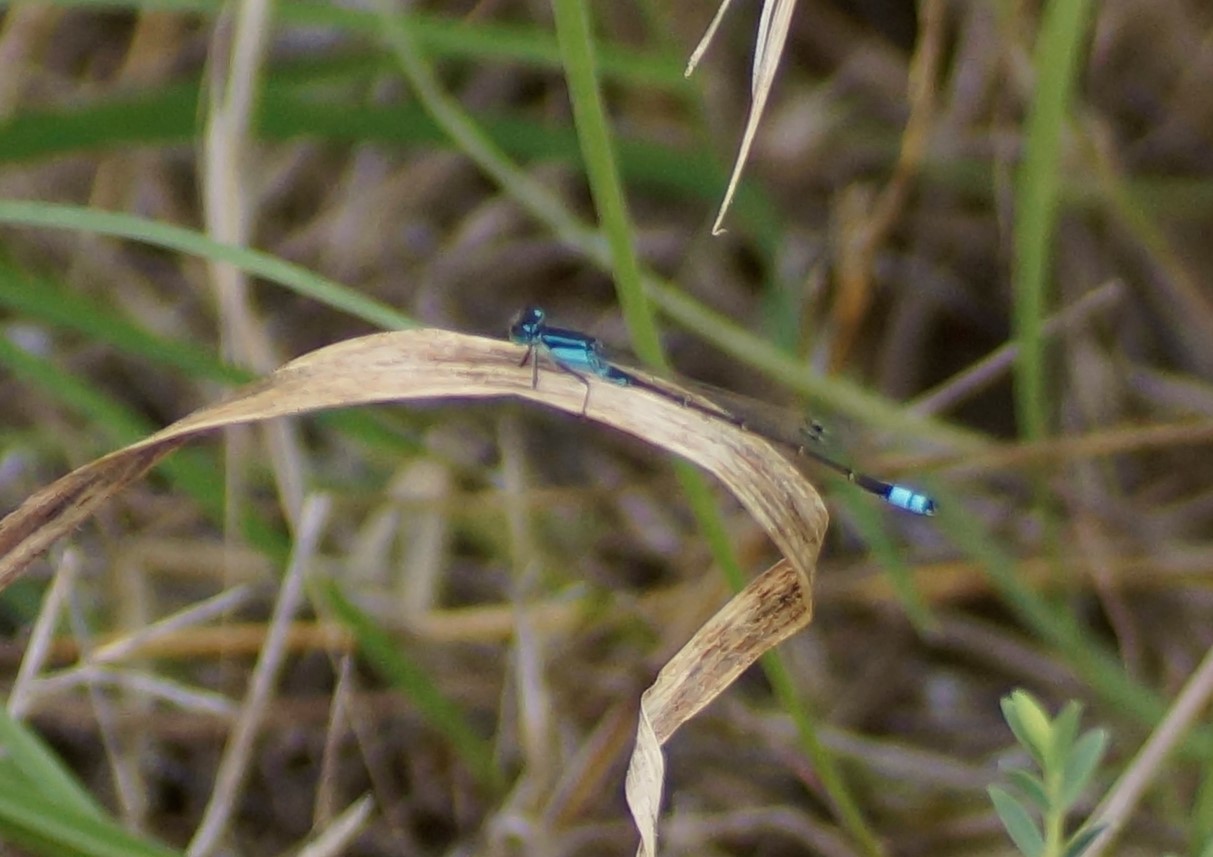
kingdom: Animalia
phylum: Arthropoda
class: Insecta
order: Odonata
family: Coenagrionidae
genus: Ischnura
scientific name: Ischnura heterosticta
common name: Common bluetail
